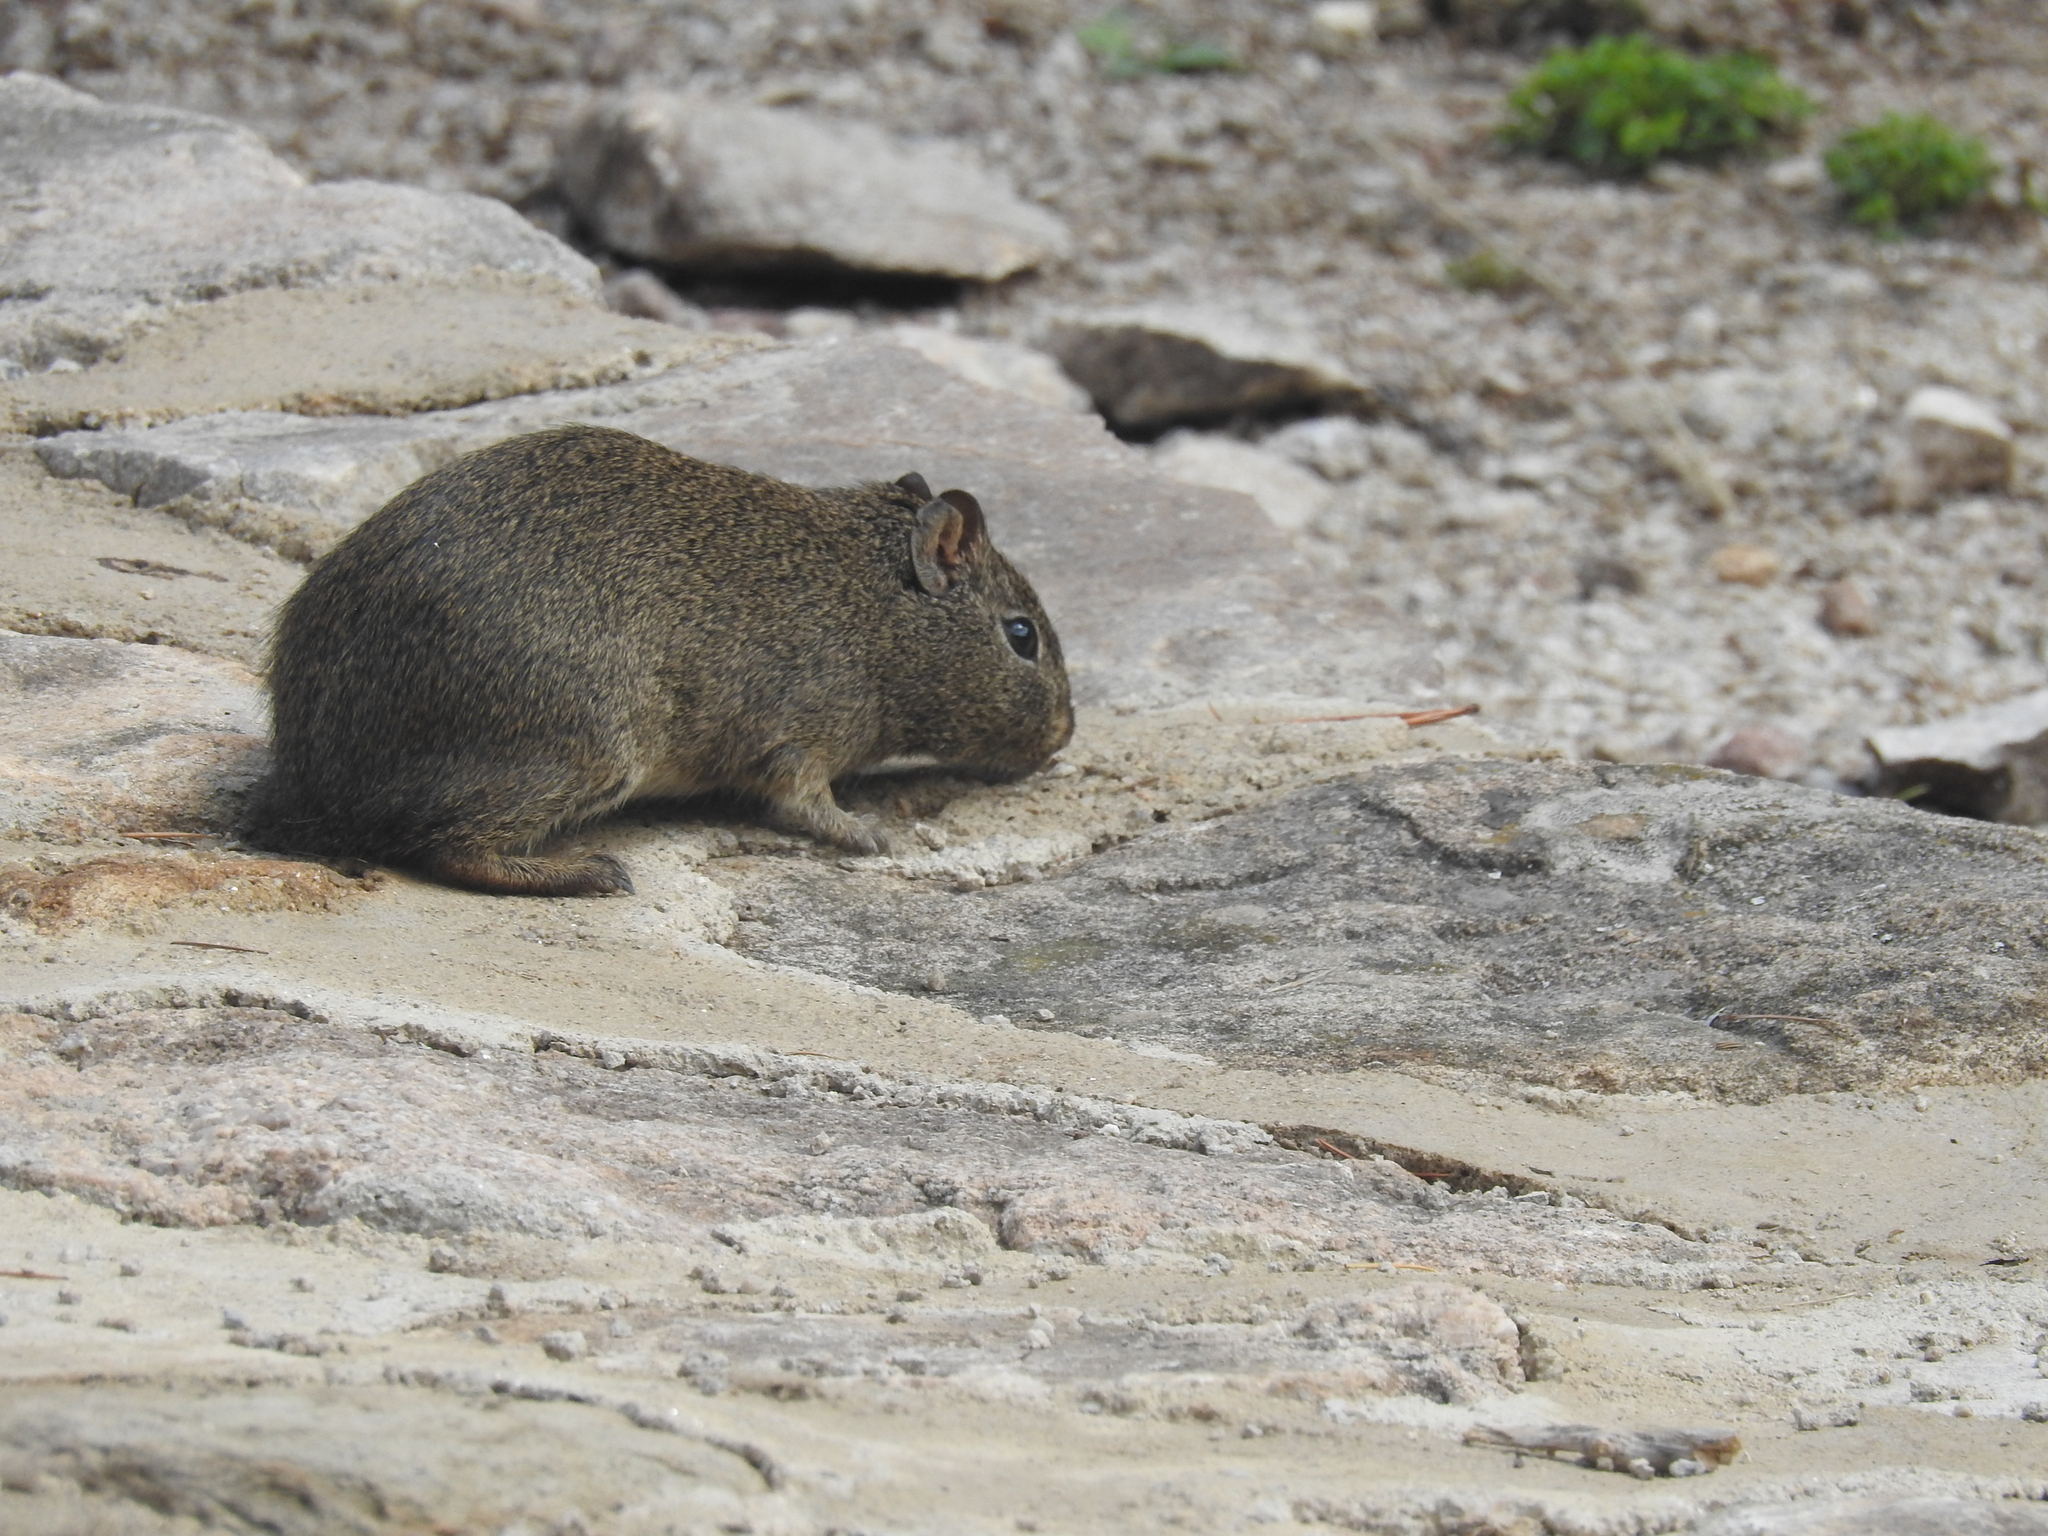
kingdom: Animalia
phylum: Chordata
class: Mammalia
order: Rodentia
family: Caviidae
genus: Galea
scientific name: Galea musteloides
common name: Common yellow-toothed cavy
